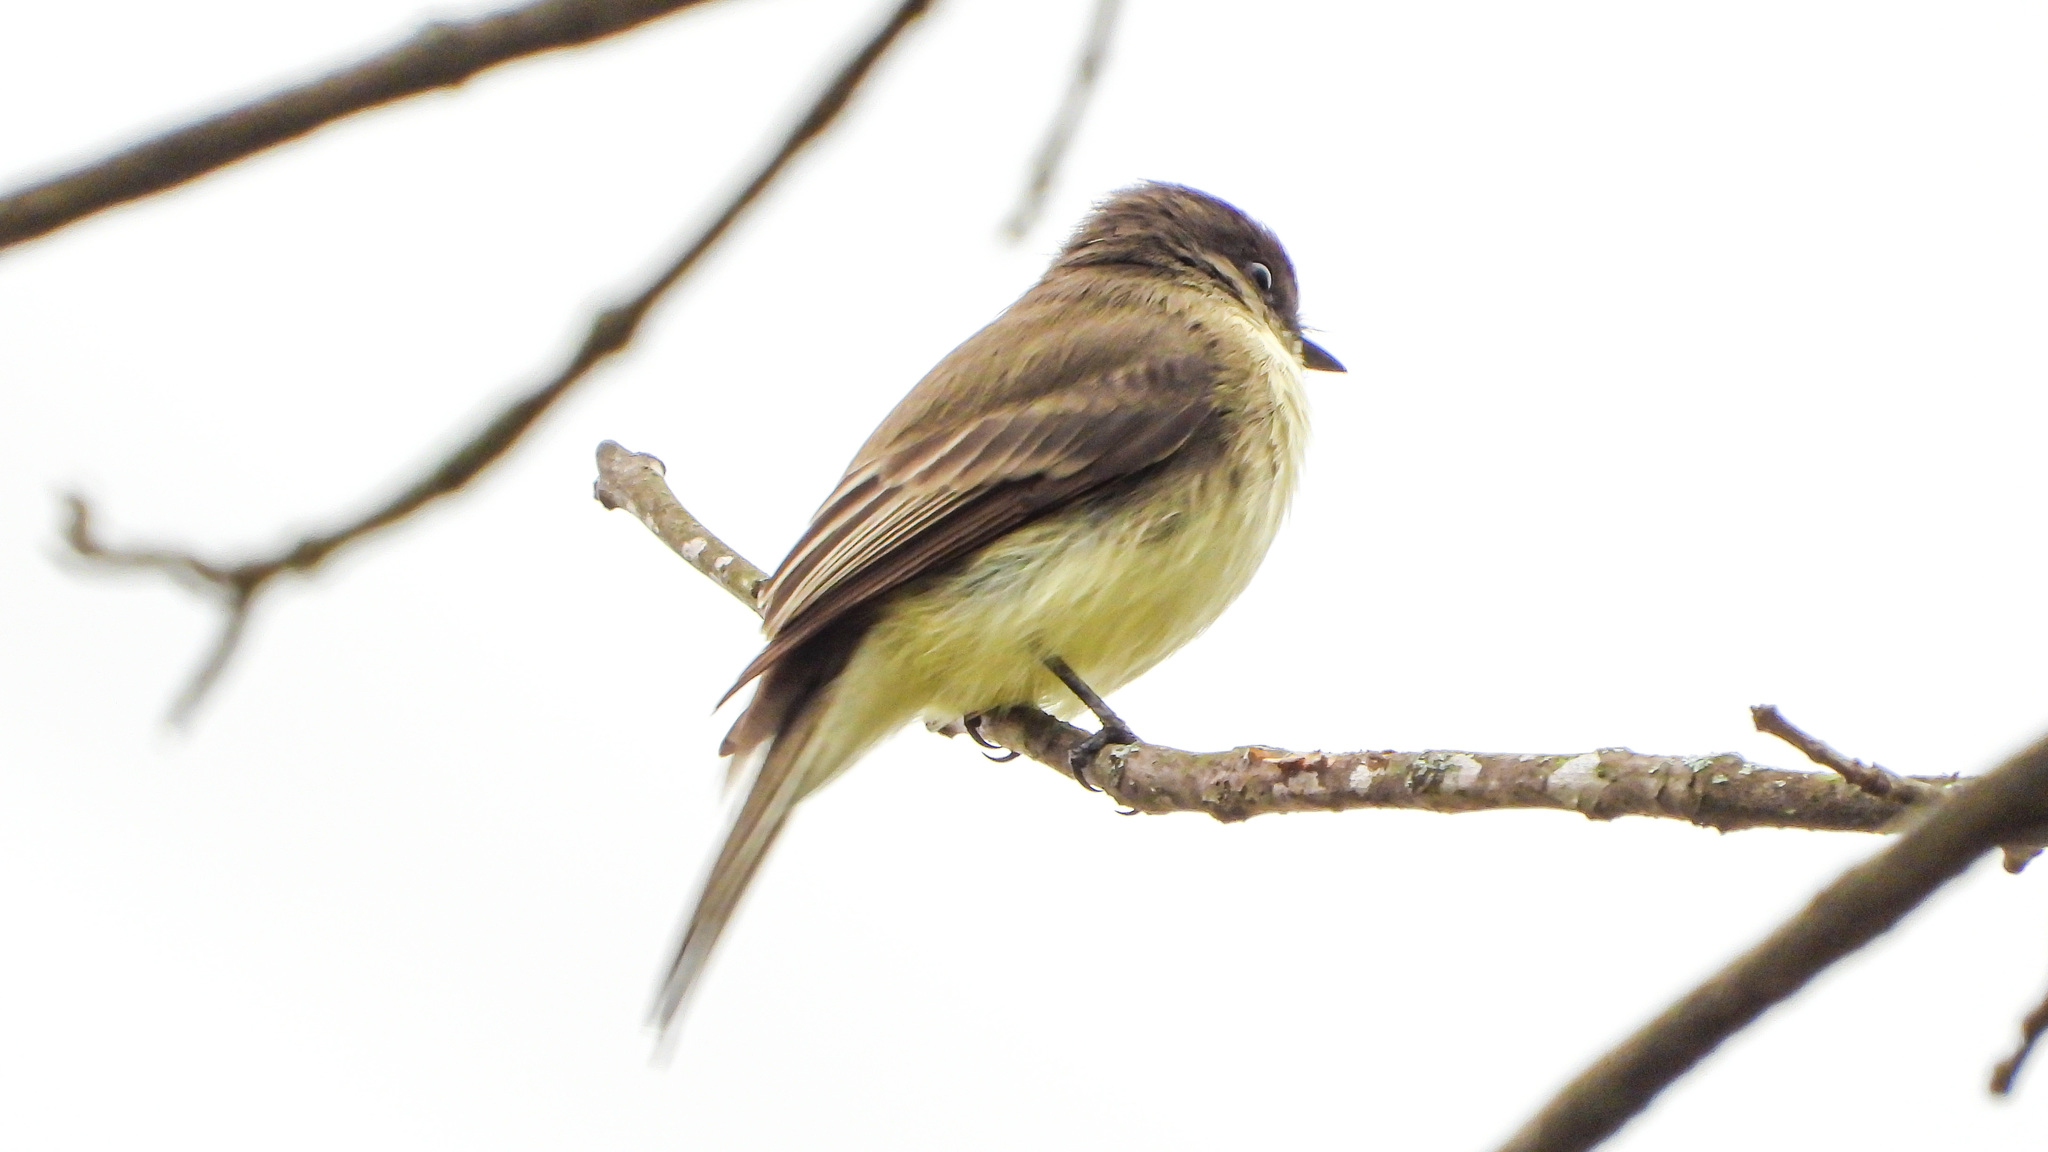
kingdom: Animalia
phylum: Chordata
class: Aves
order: Passeriformes
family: Tyrannidae
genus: Sayornis
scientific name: Sayornis phoebe
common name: Eastern phoebe
